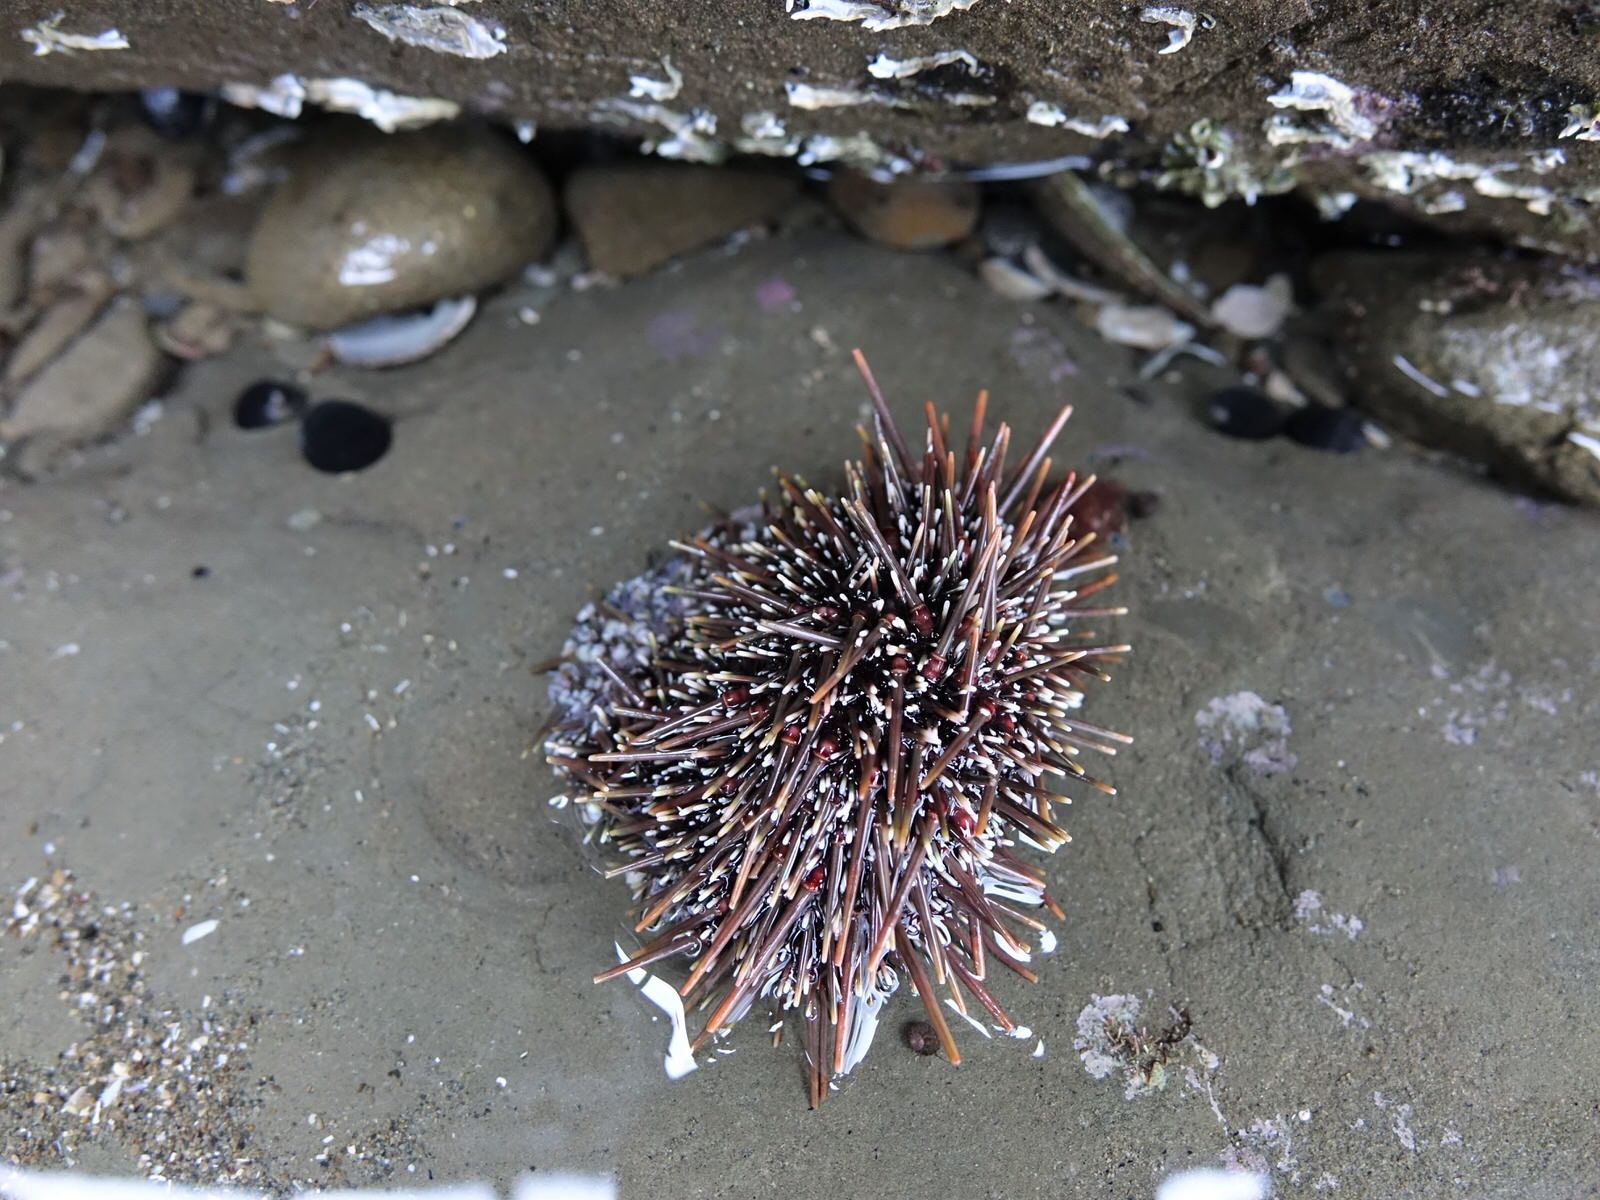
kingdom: Animalia
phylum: Echinodermata
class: Echinoidea
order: Camarodonta
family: Echinometridae
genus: Evechinus
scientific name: Evechinus chloroticus
